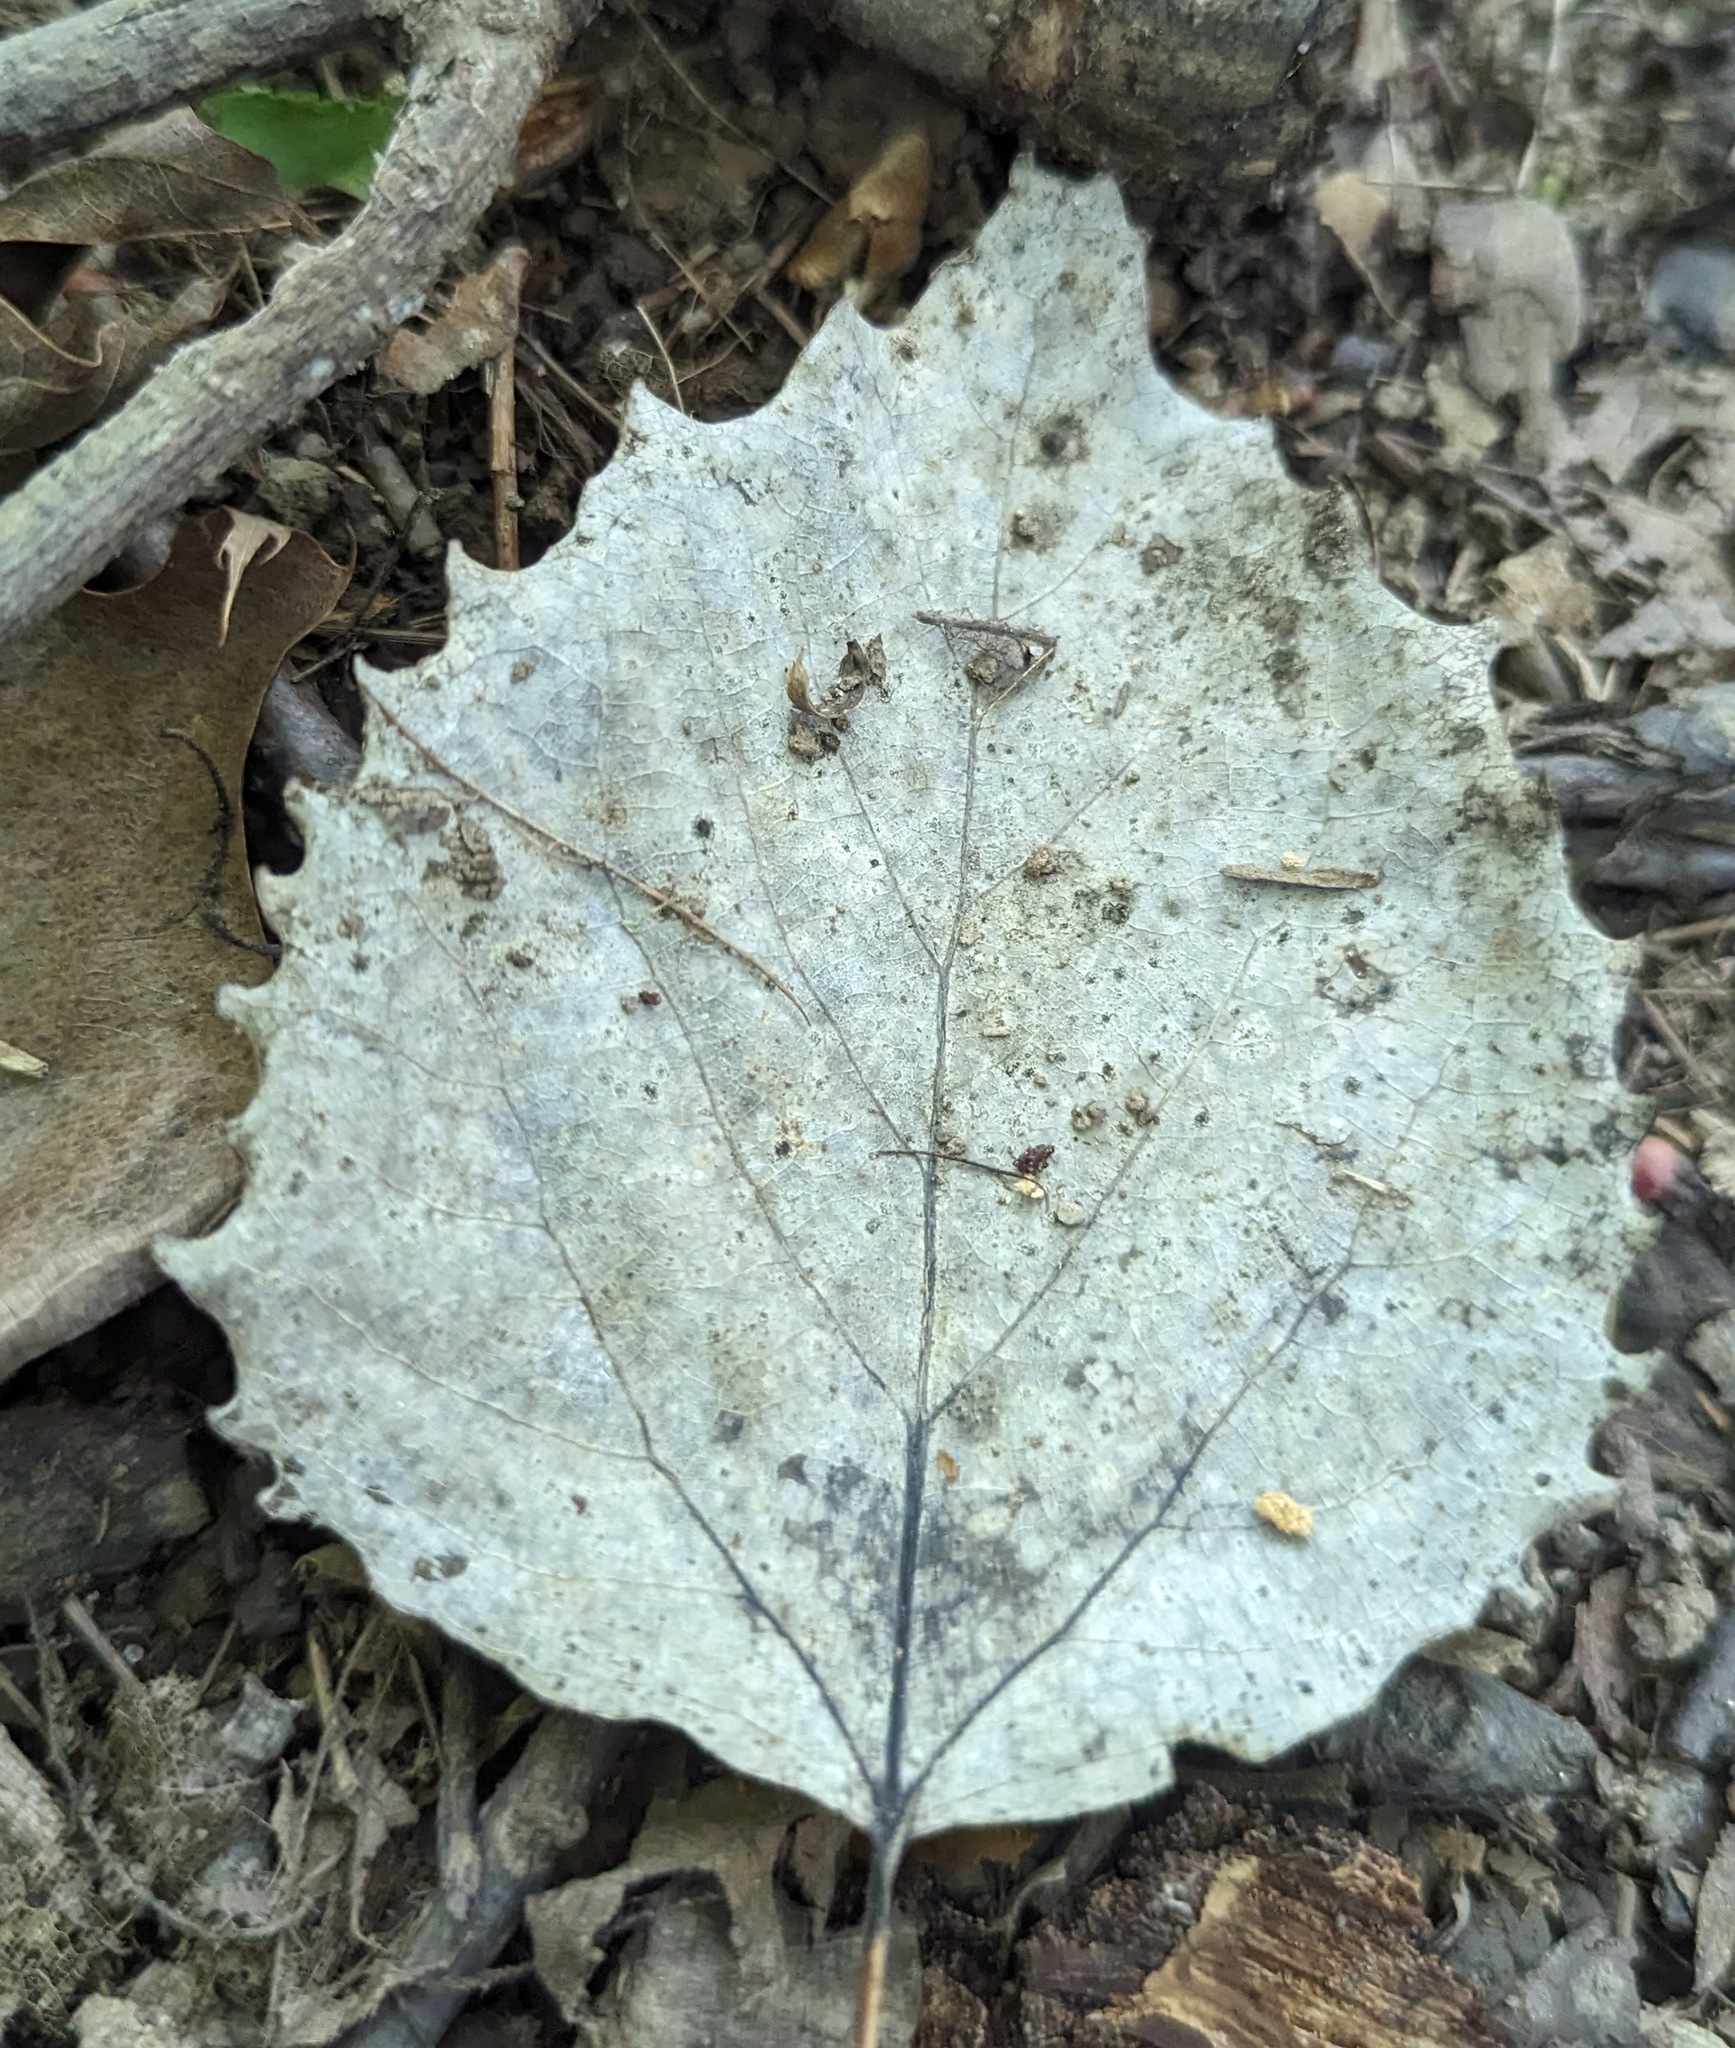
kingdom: Plantae
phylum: Tracheophyta
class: Magnoliopsida
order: Malpighiales
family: Salicaceae
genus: Populus
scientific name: Populus grandidentata
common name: Bigtooth aspen
